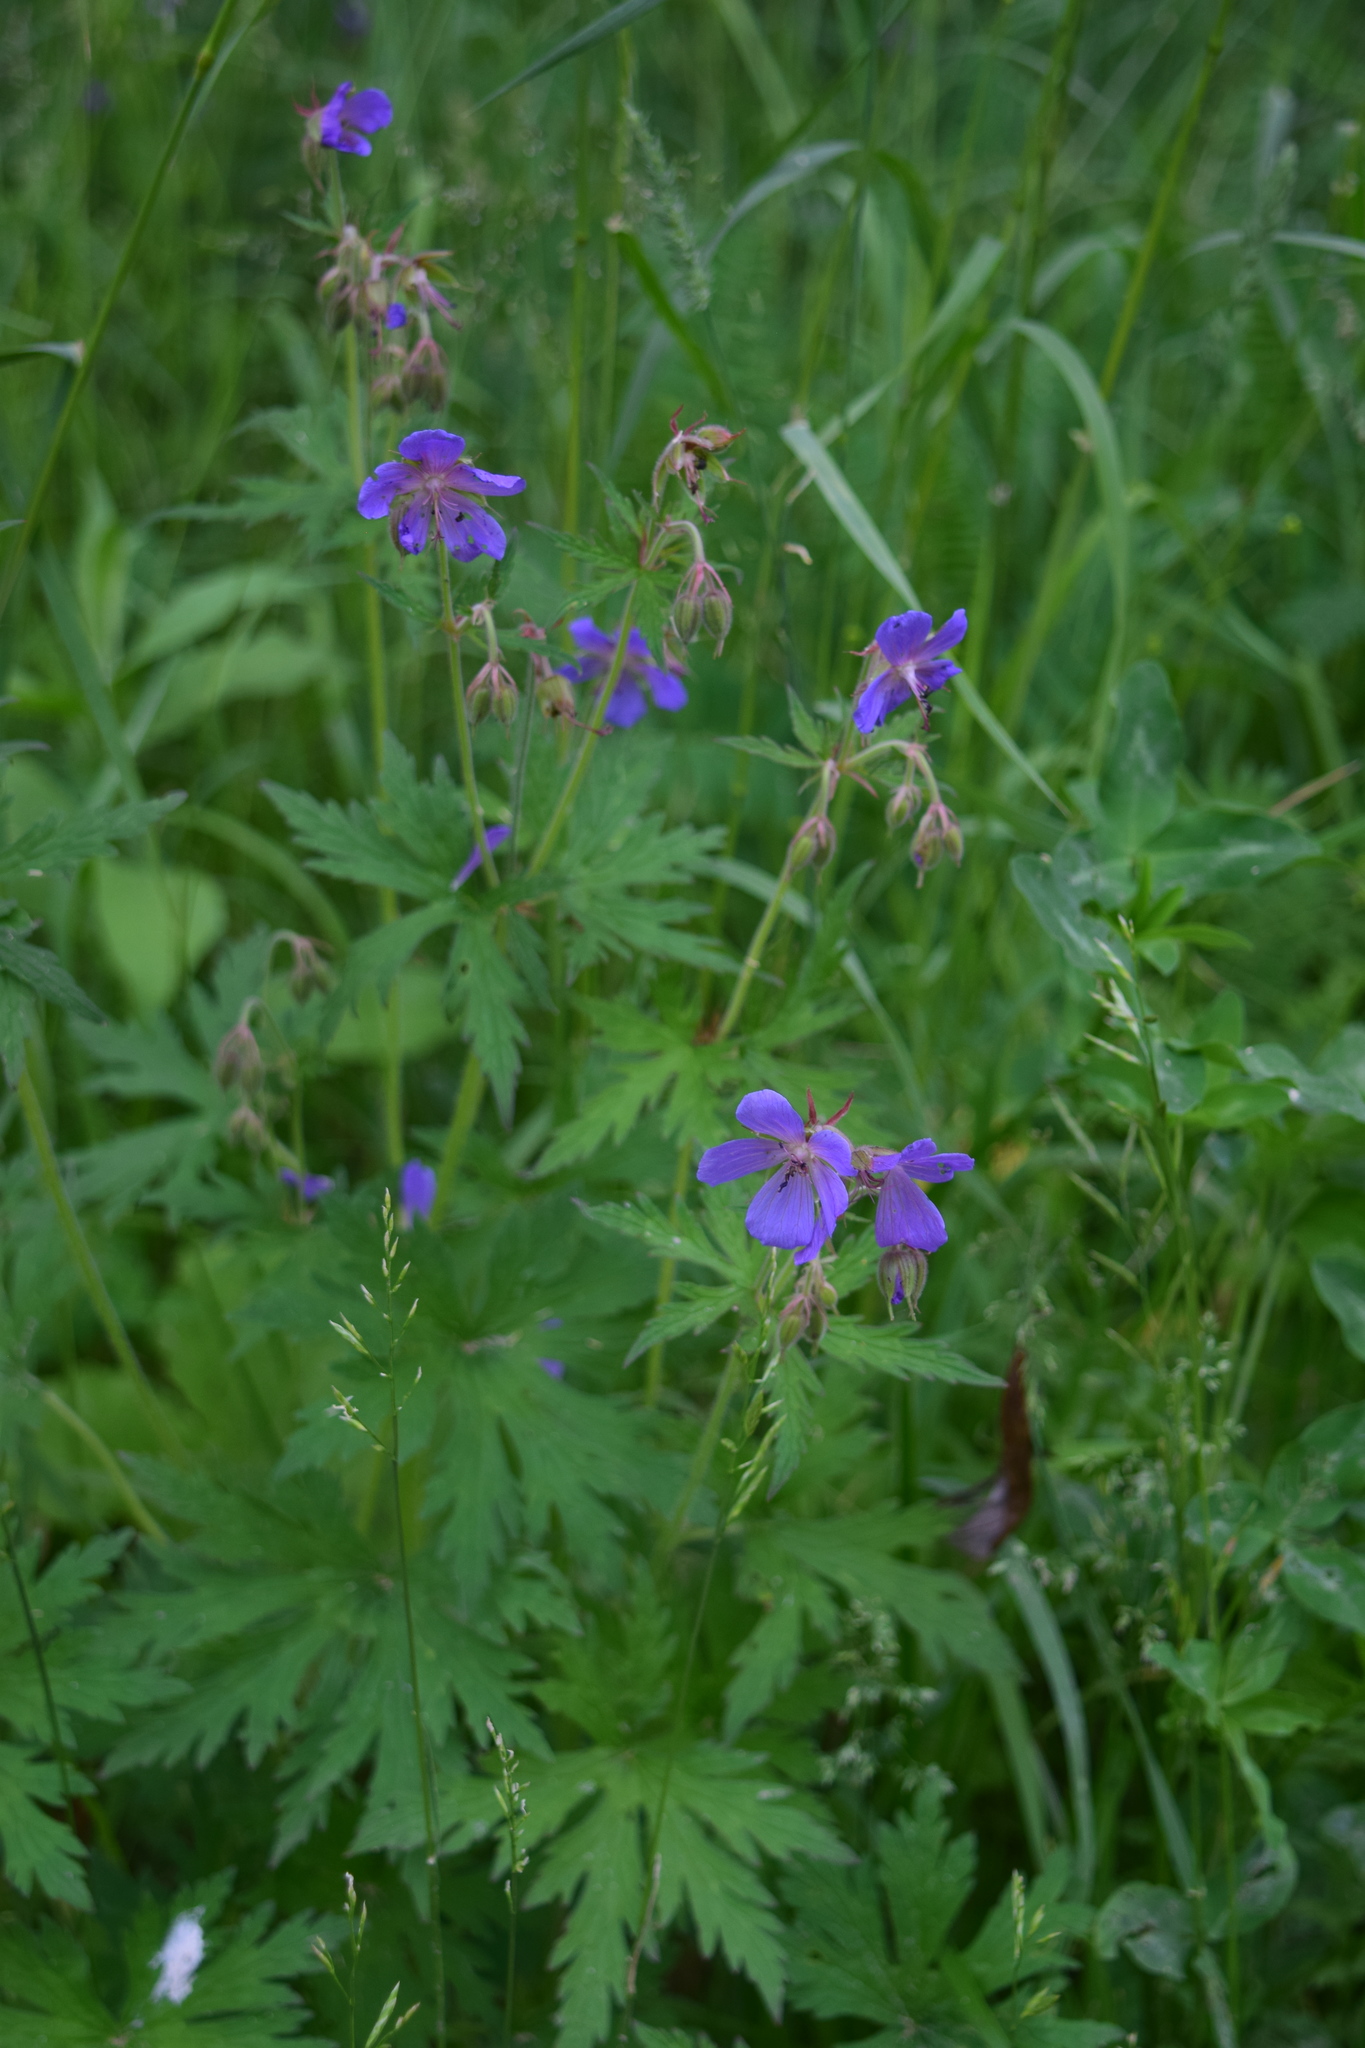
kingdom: Plantae
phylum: Tracheophyta
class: Magnoliopsida
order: Geraniales
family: Geraniaceae
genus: Geranium
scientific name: Geranium pratense
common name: Meadow crane's-bill
